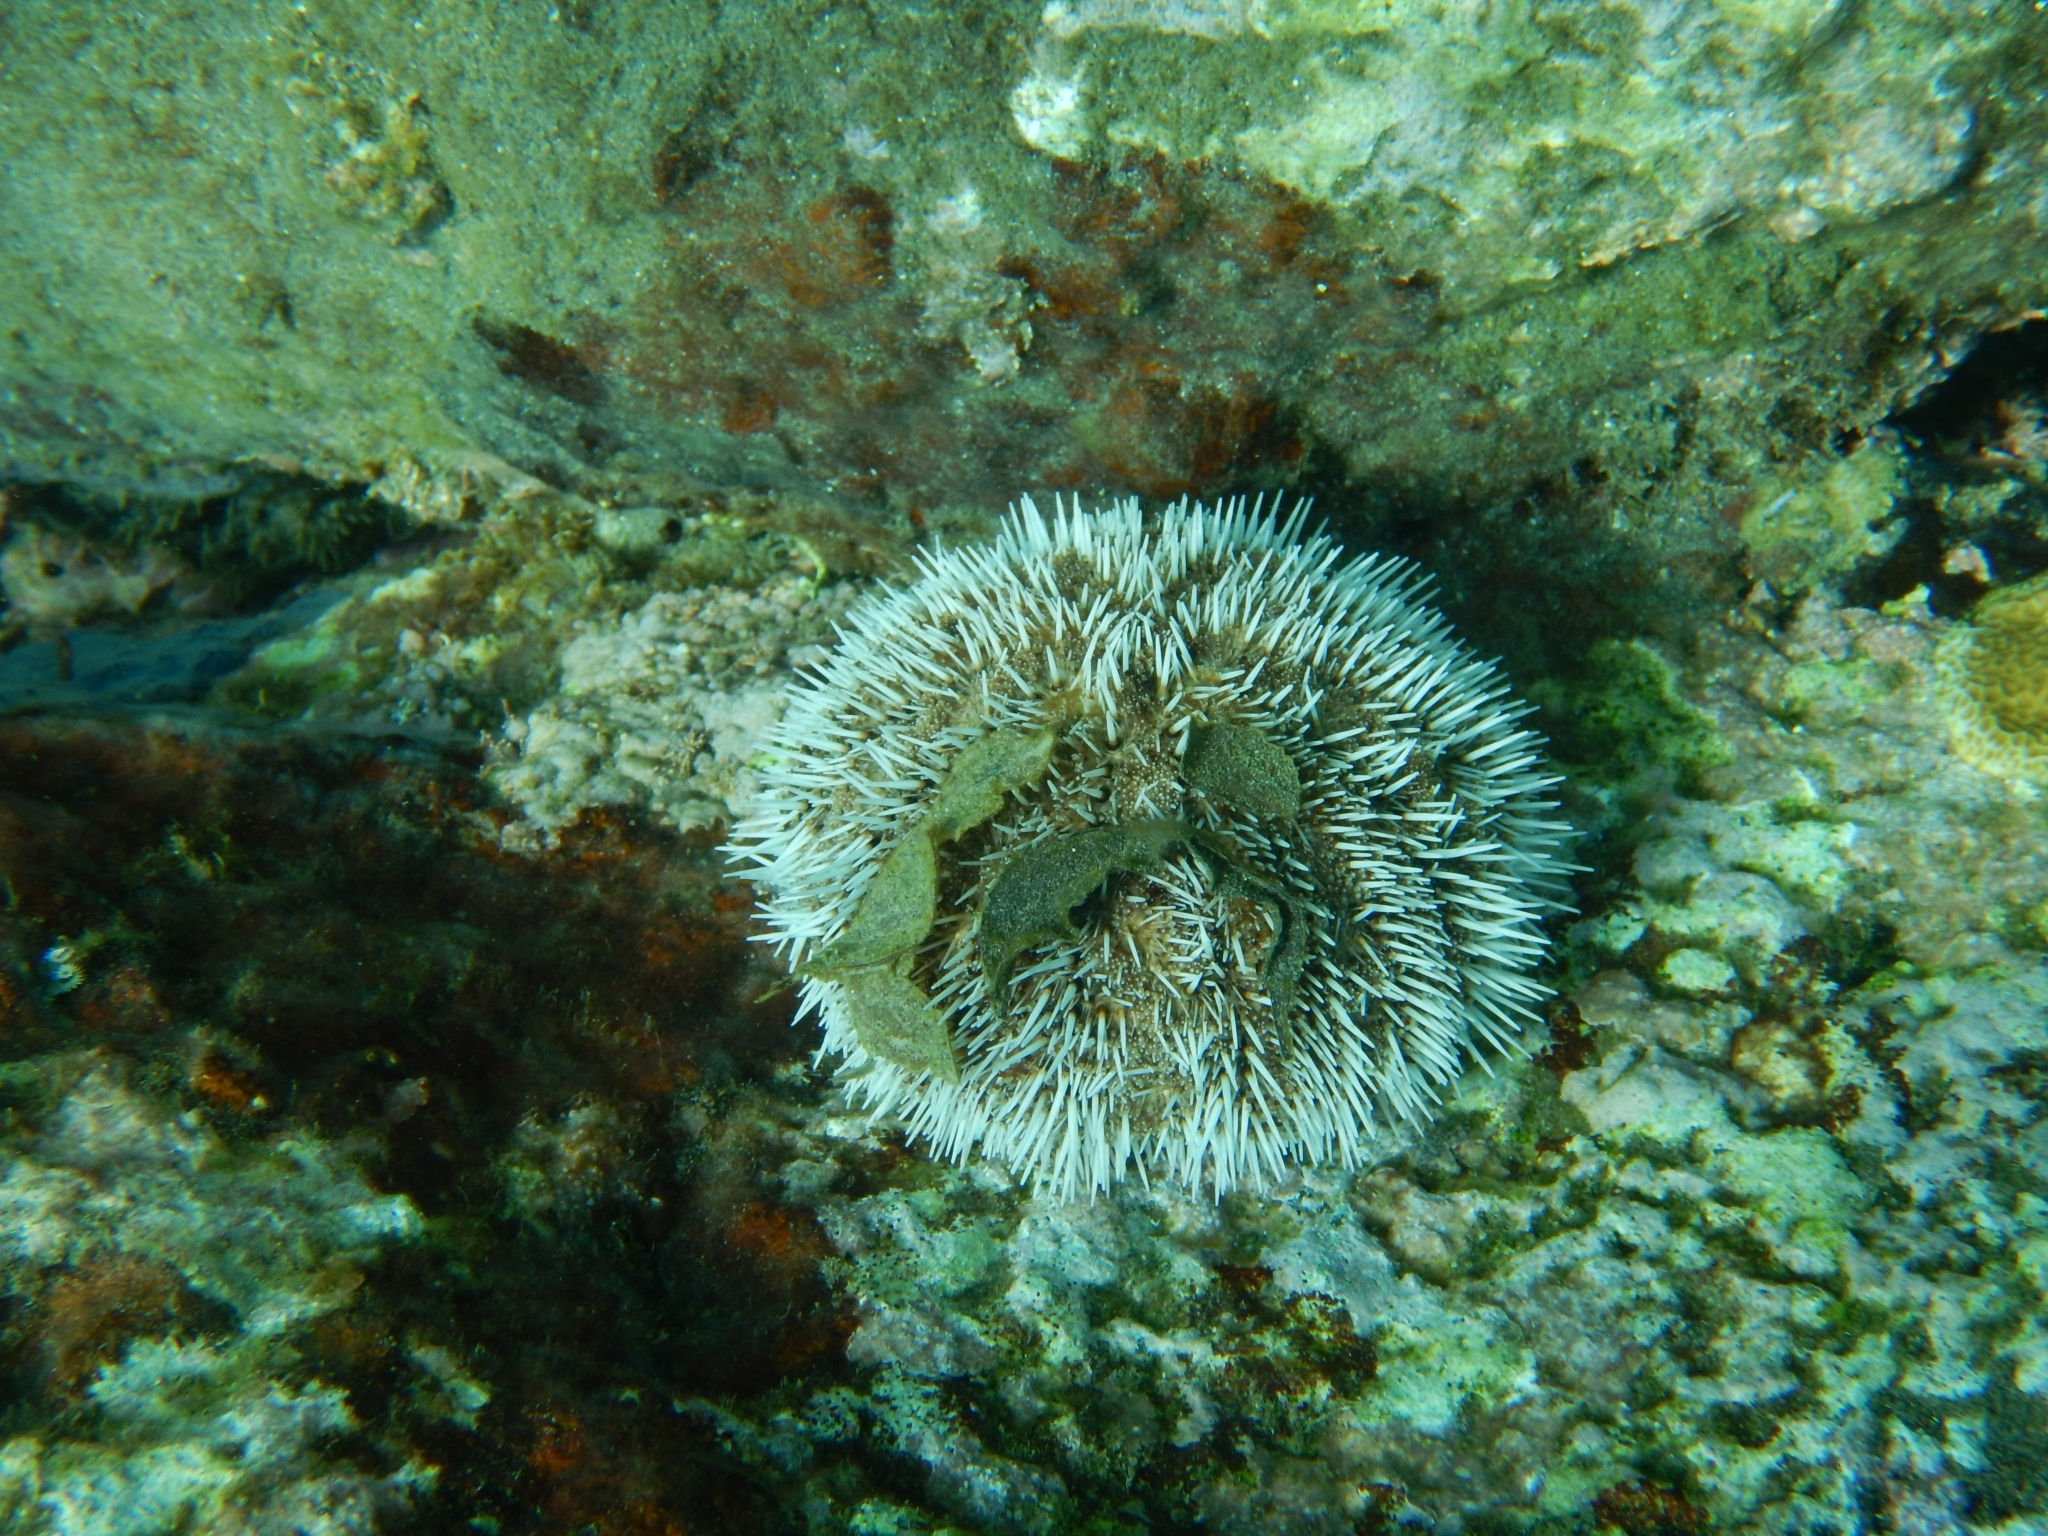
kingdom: Animalia
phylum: Echinodermata
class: Echinoidea
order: Camarodonta
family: Toxopneustidae
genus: Tripneustes
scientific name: Tripneustes ventricosus
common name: West indian sea egg
